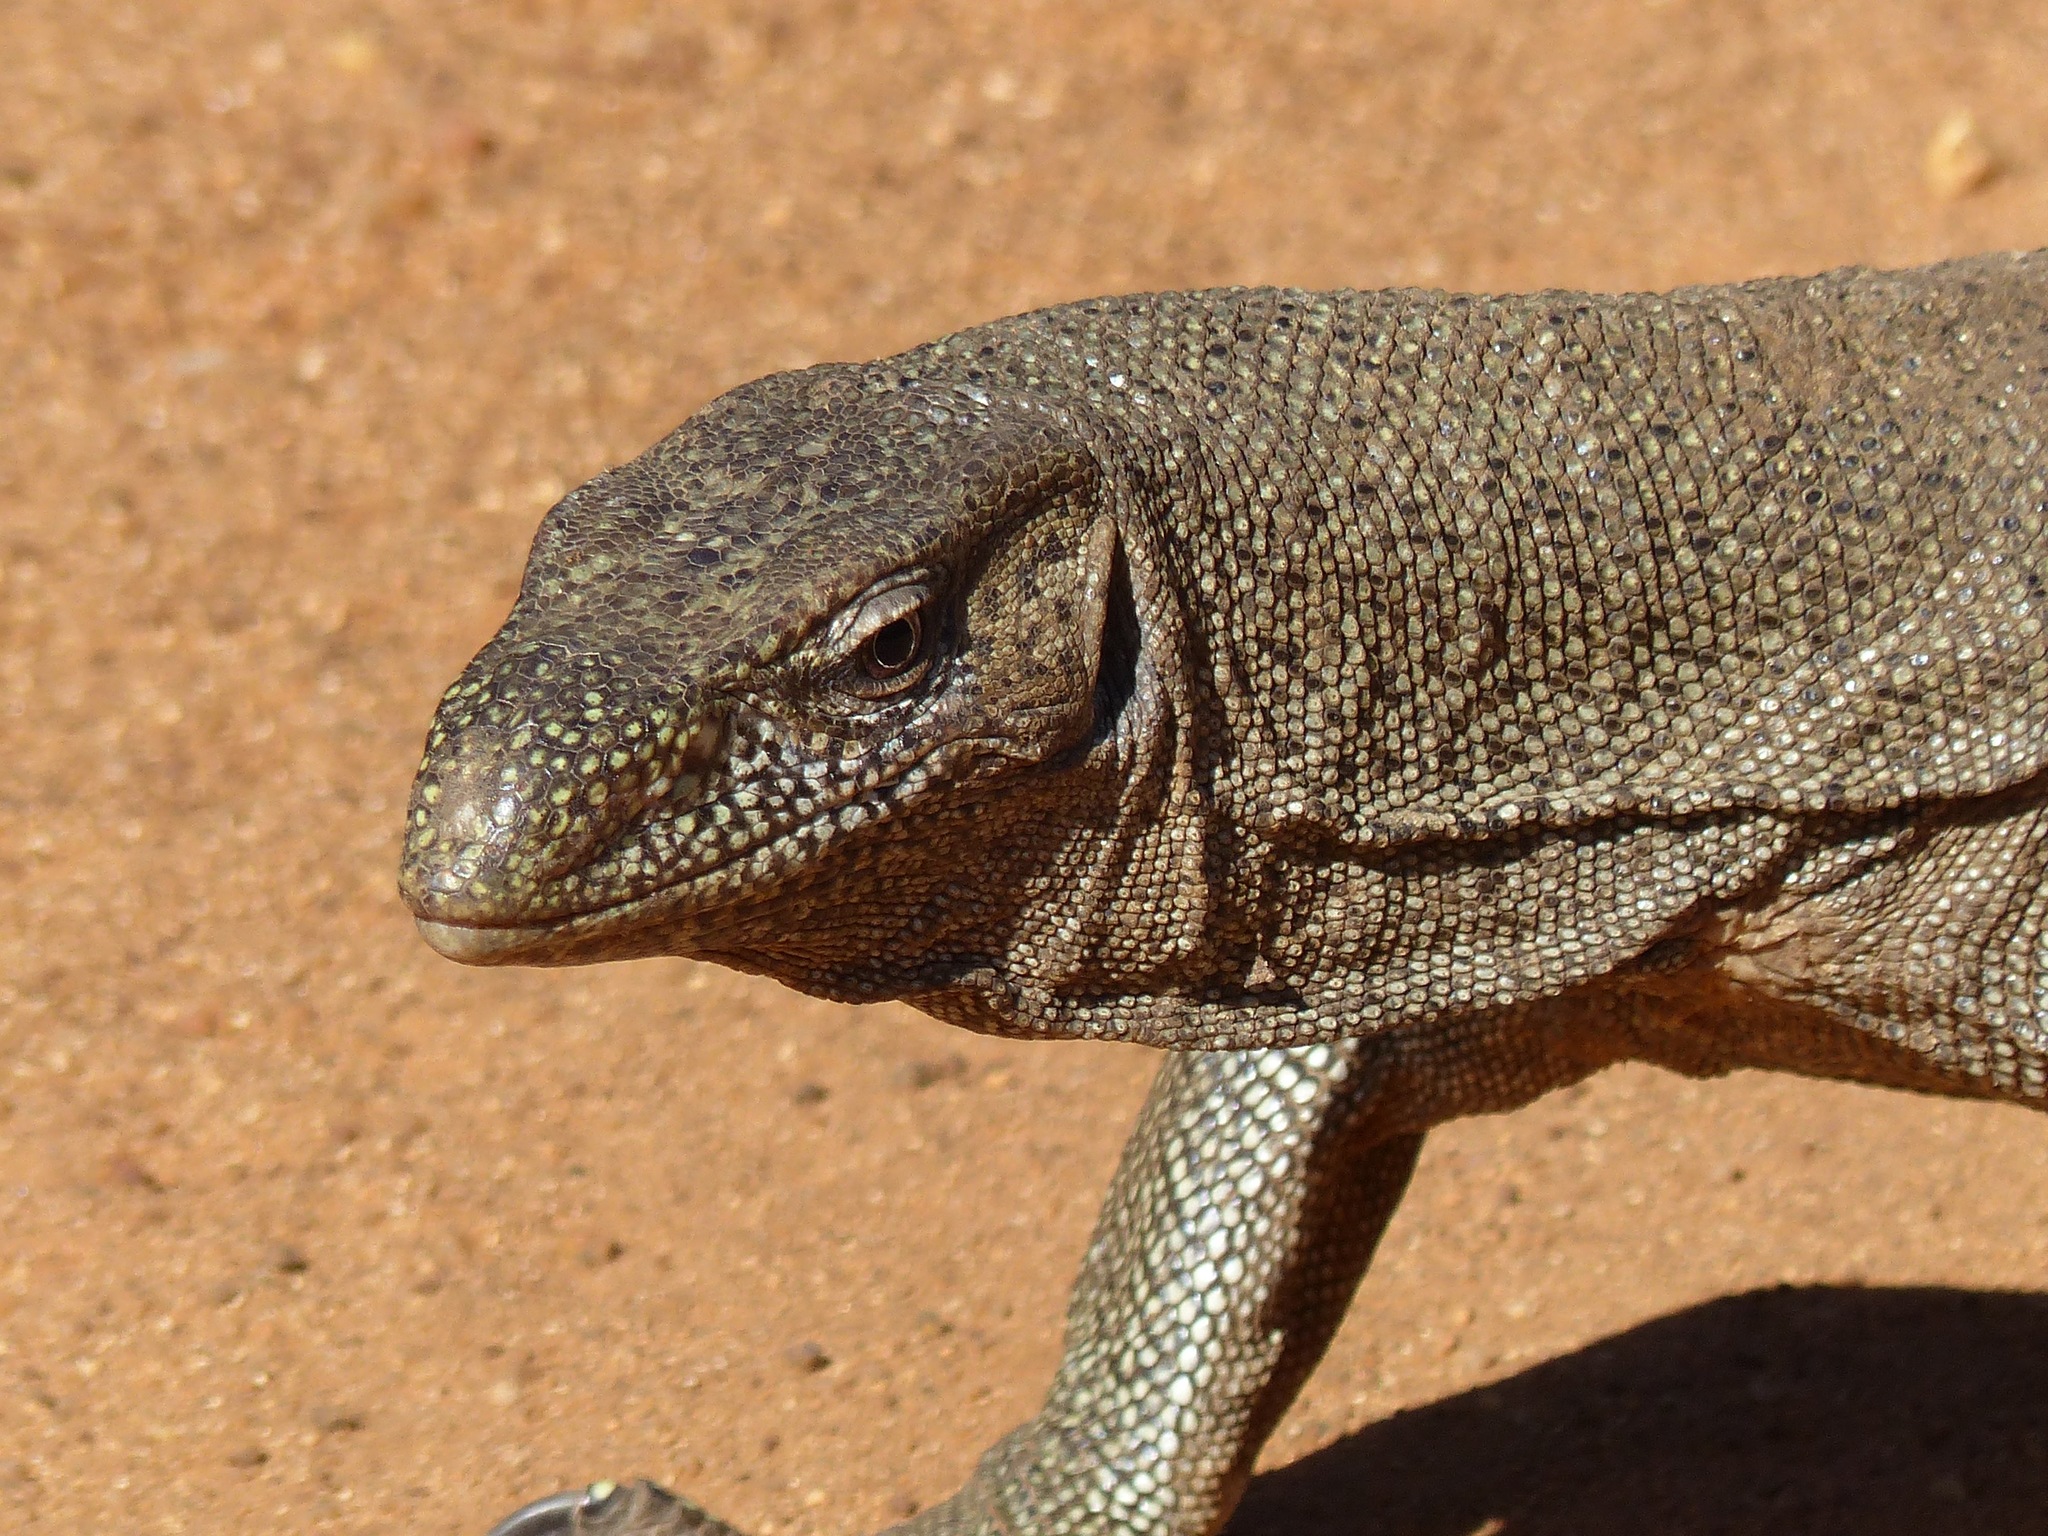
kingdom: Animalia
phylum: Chordata
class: Squamata
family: Varanidae
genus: Varanus
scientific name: Varanus bengalensis
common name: Bengal monitor
